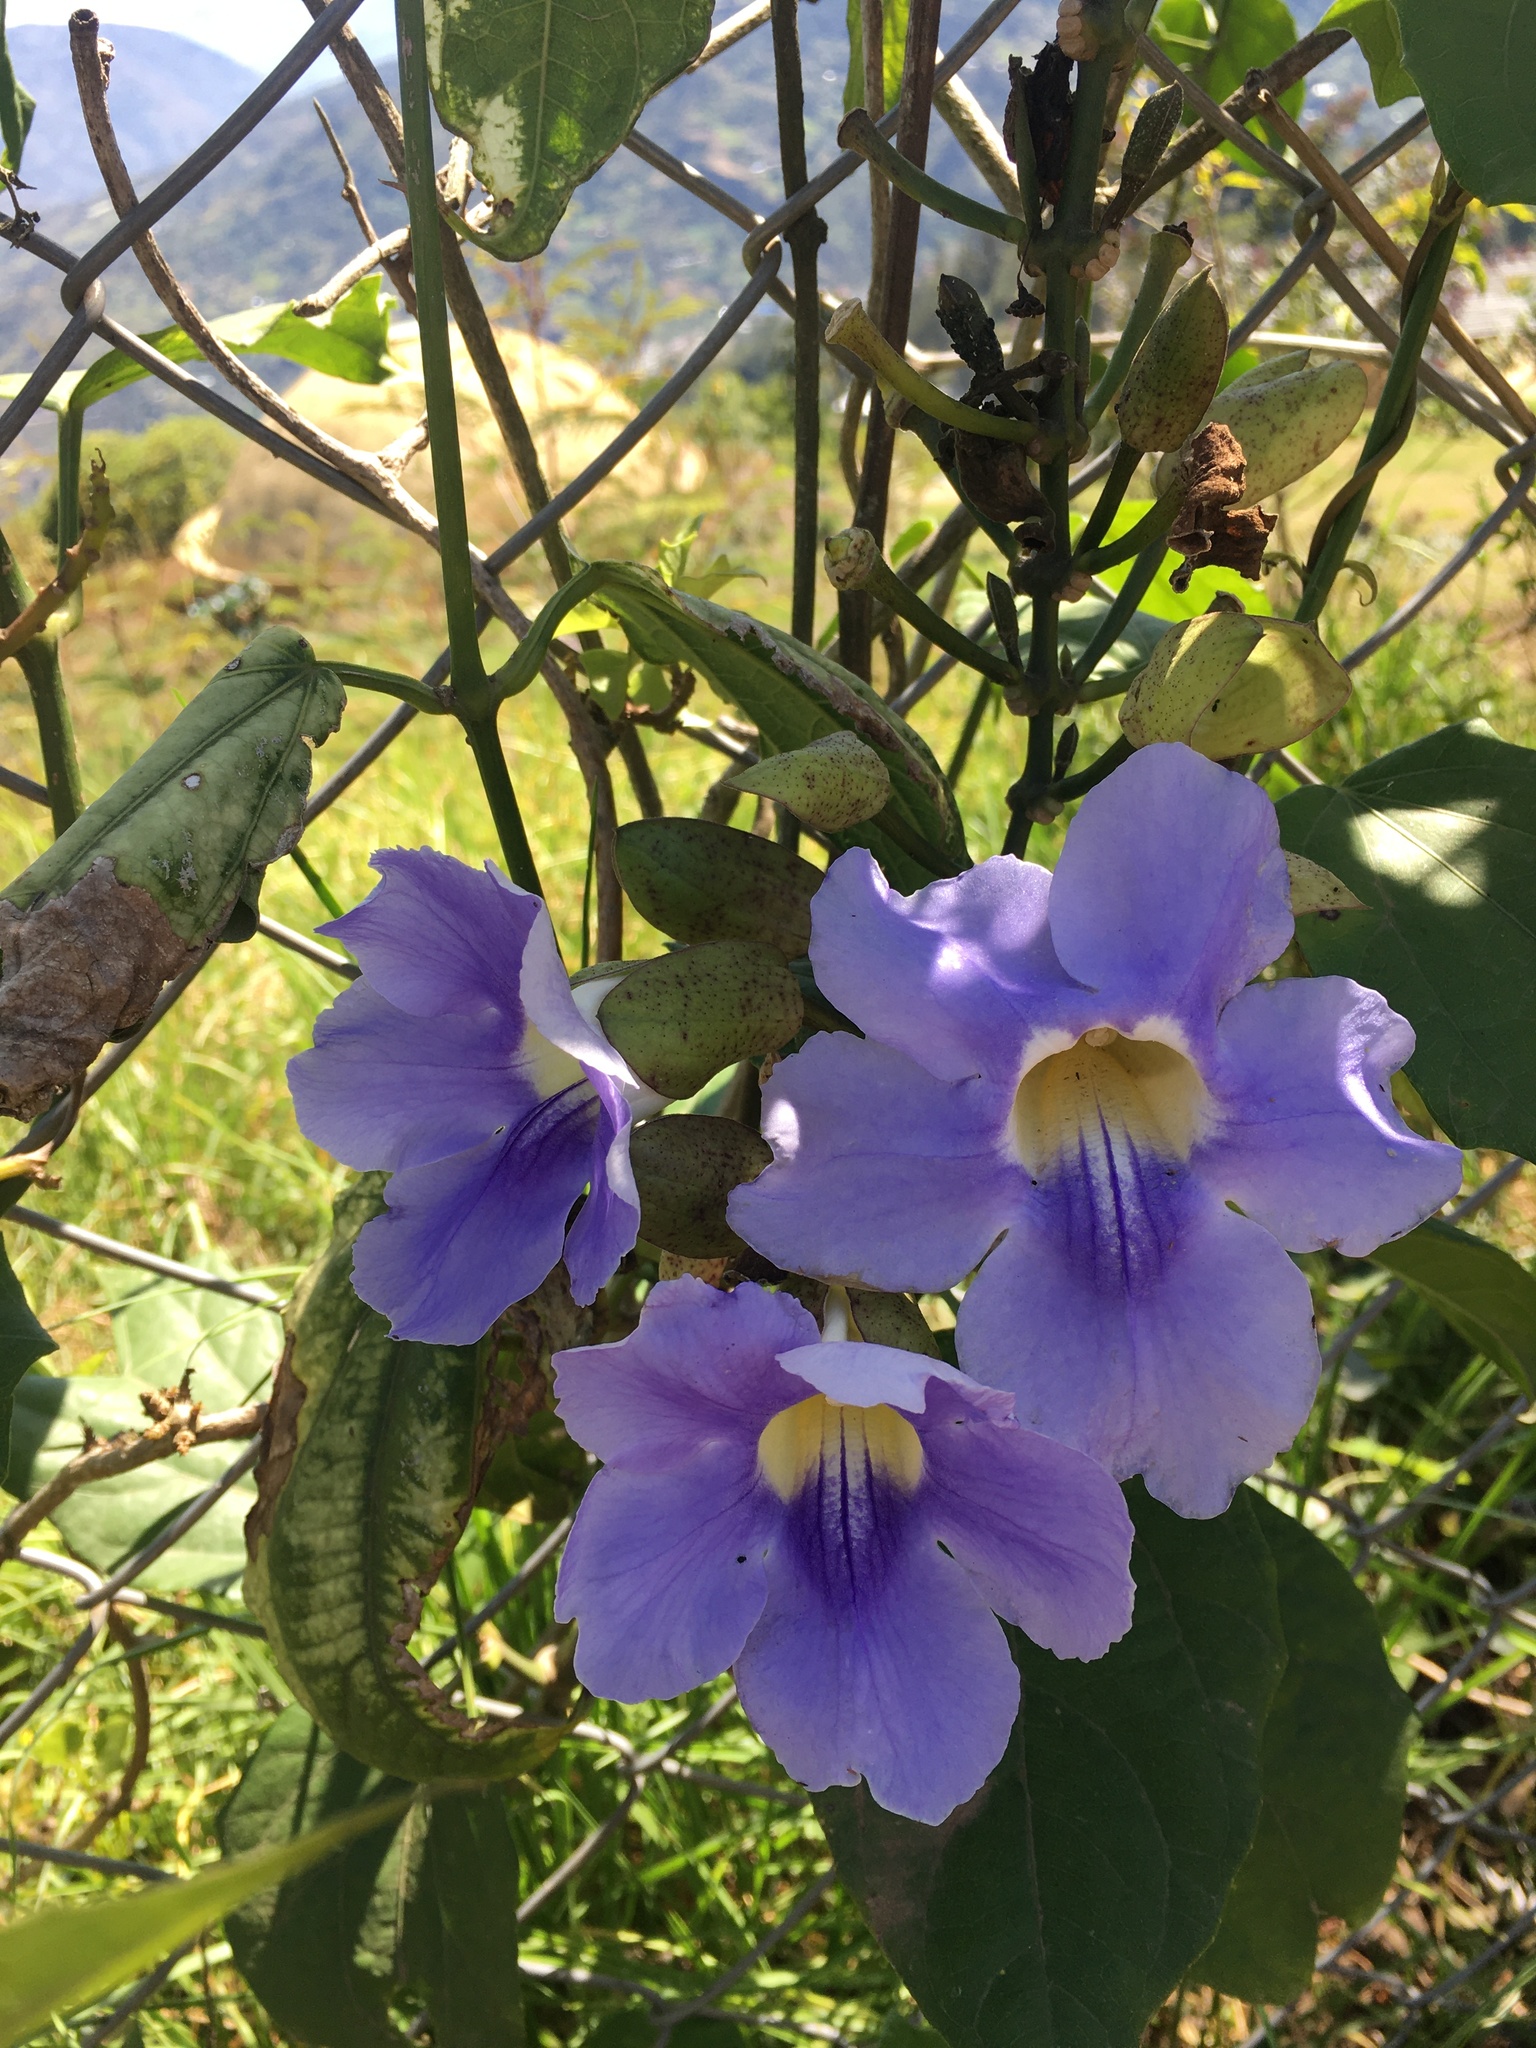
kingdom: Plantae
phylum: Tracheophyta
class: Magnoliopsida
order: Lamiales
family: Acanthaceae
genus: Thunbergia
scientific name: Thunbergia grandiflora
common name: Bengal trumpet
